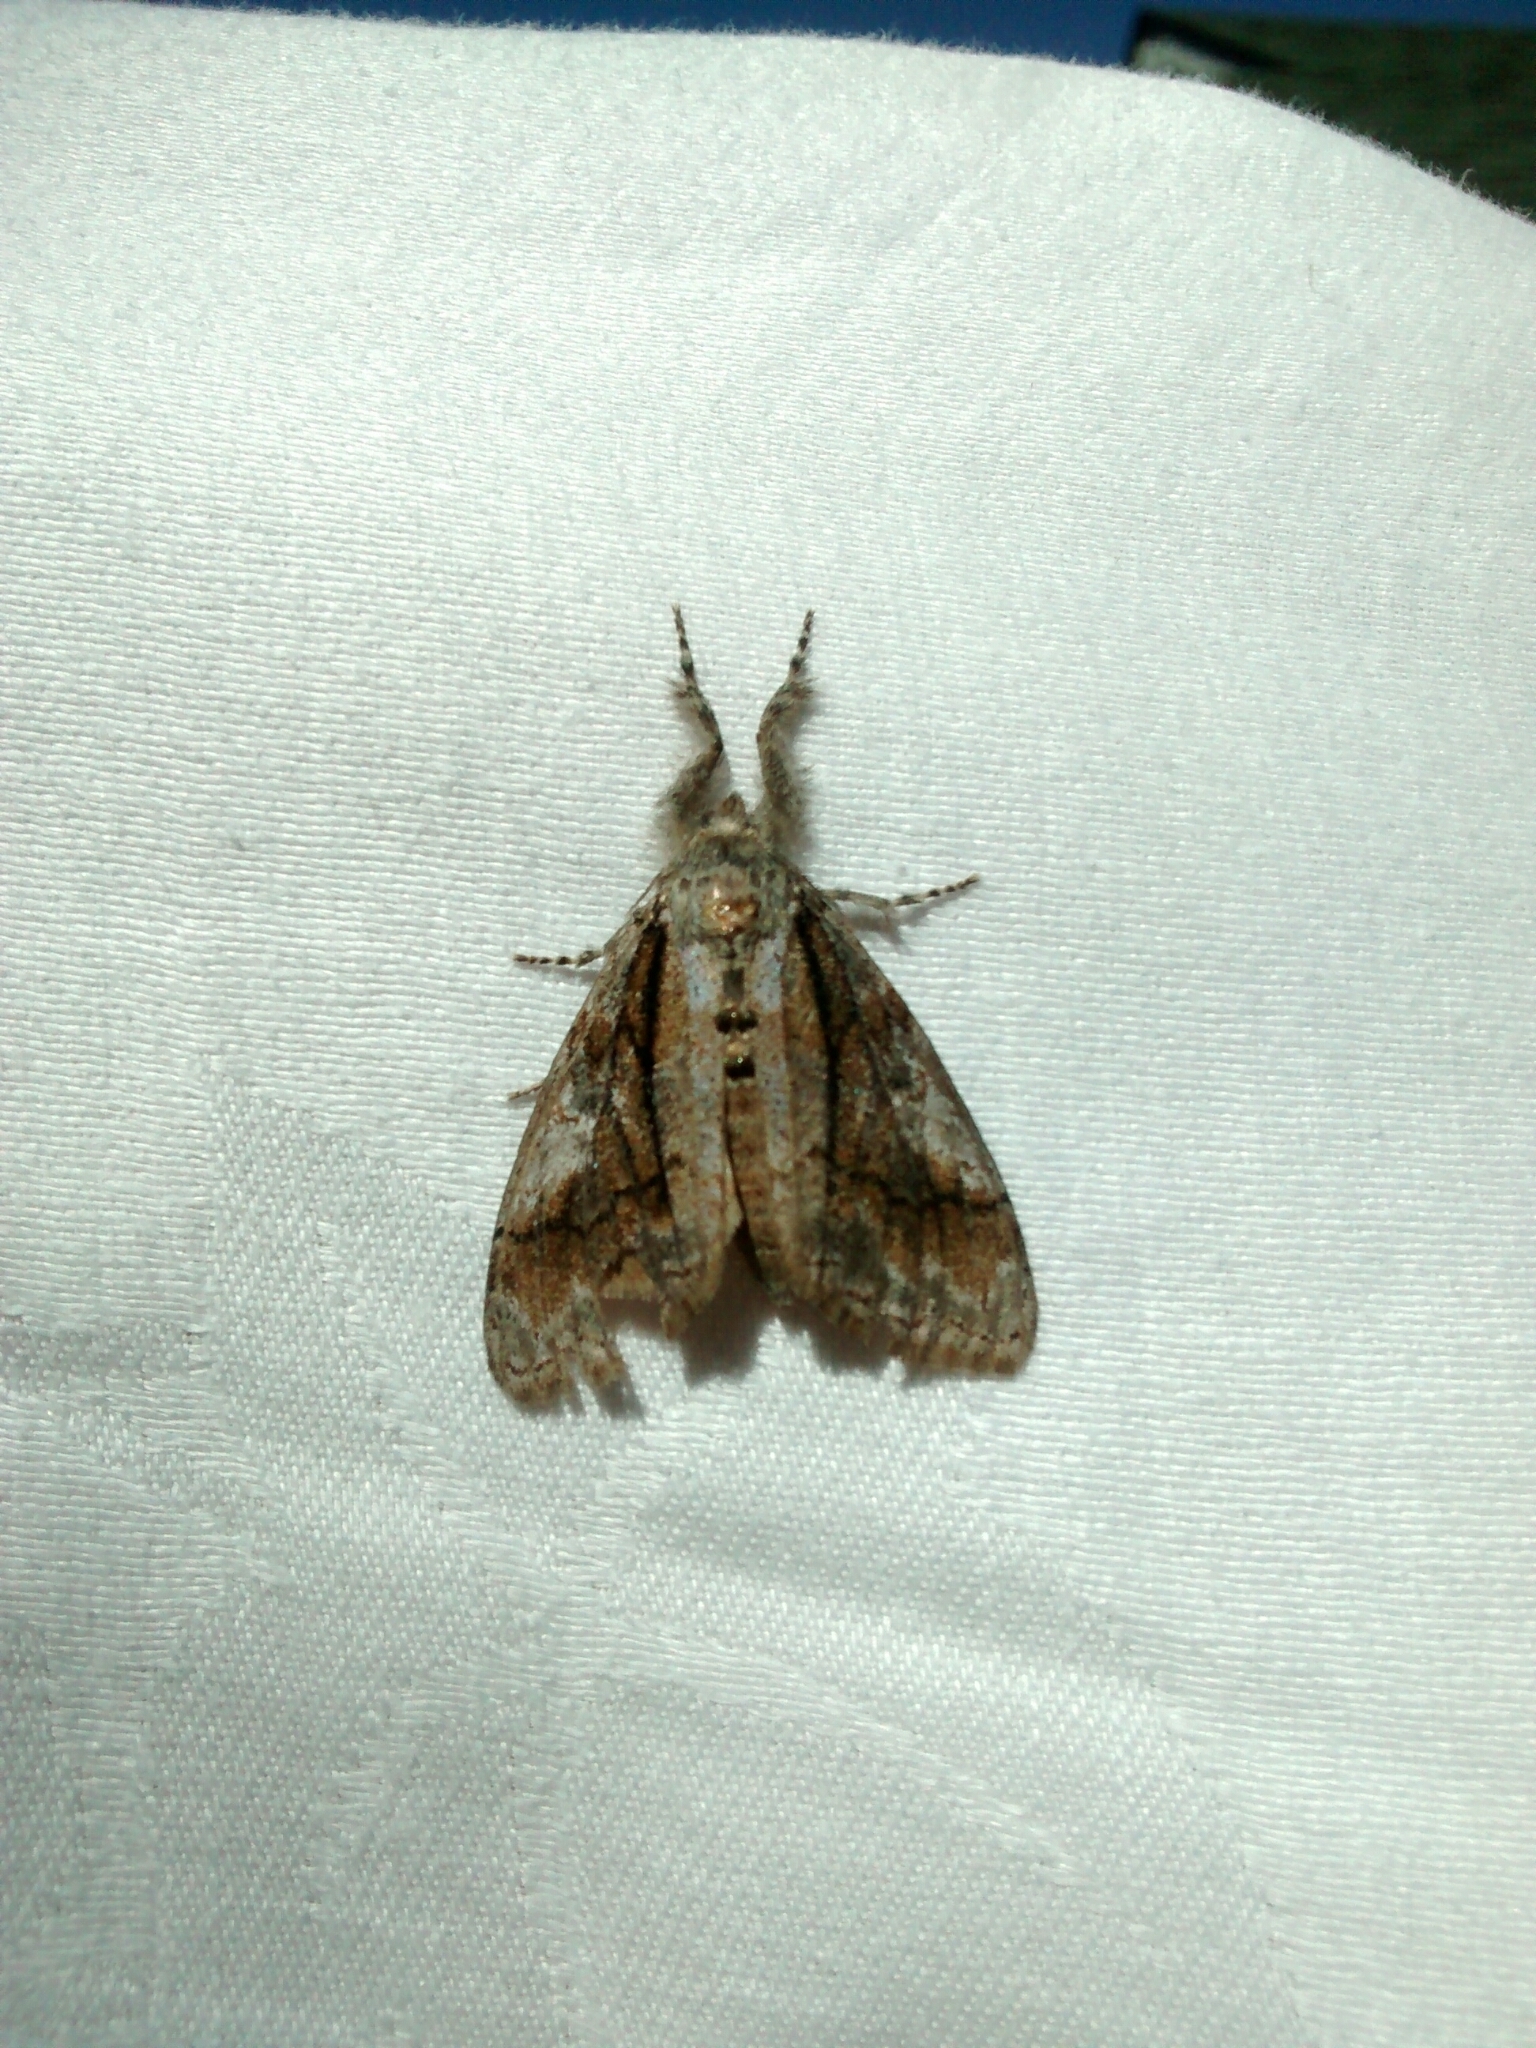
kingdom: Animalia
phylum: Arthropoda
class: Insecta
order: Lepidoptera
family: Erebidae
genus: Dasychira
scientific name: Dasychira obliquata
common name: Streaked tussock moth
